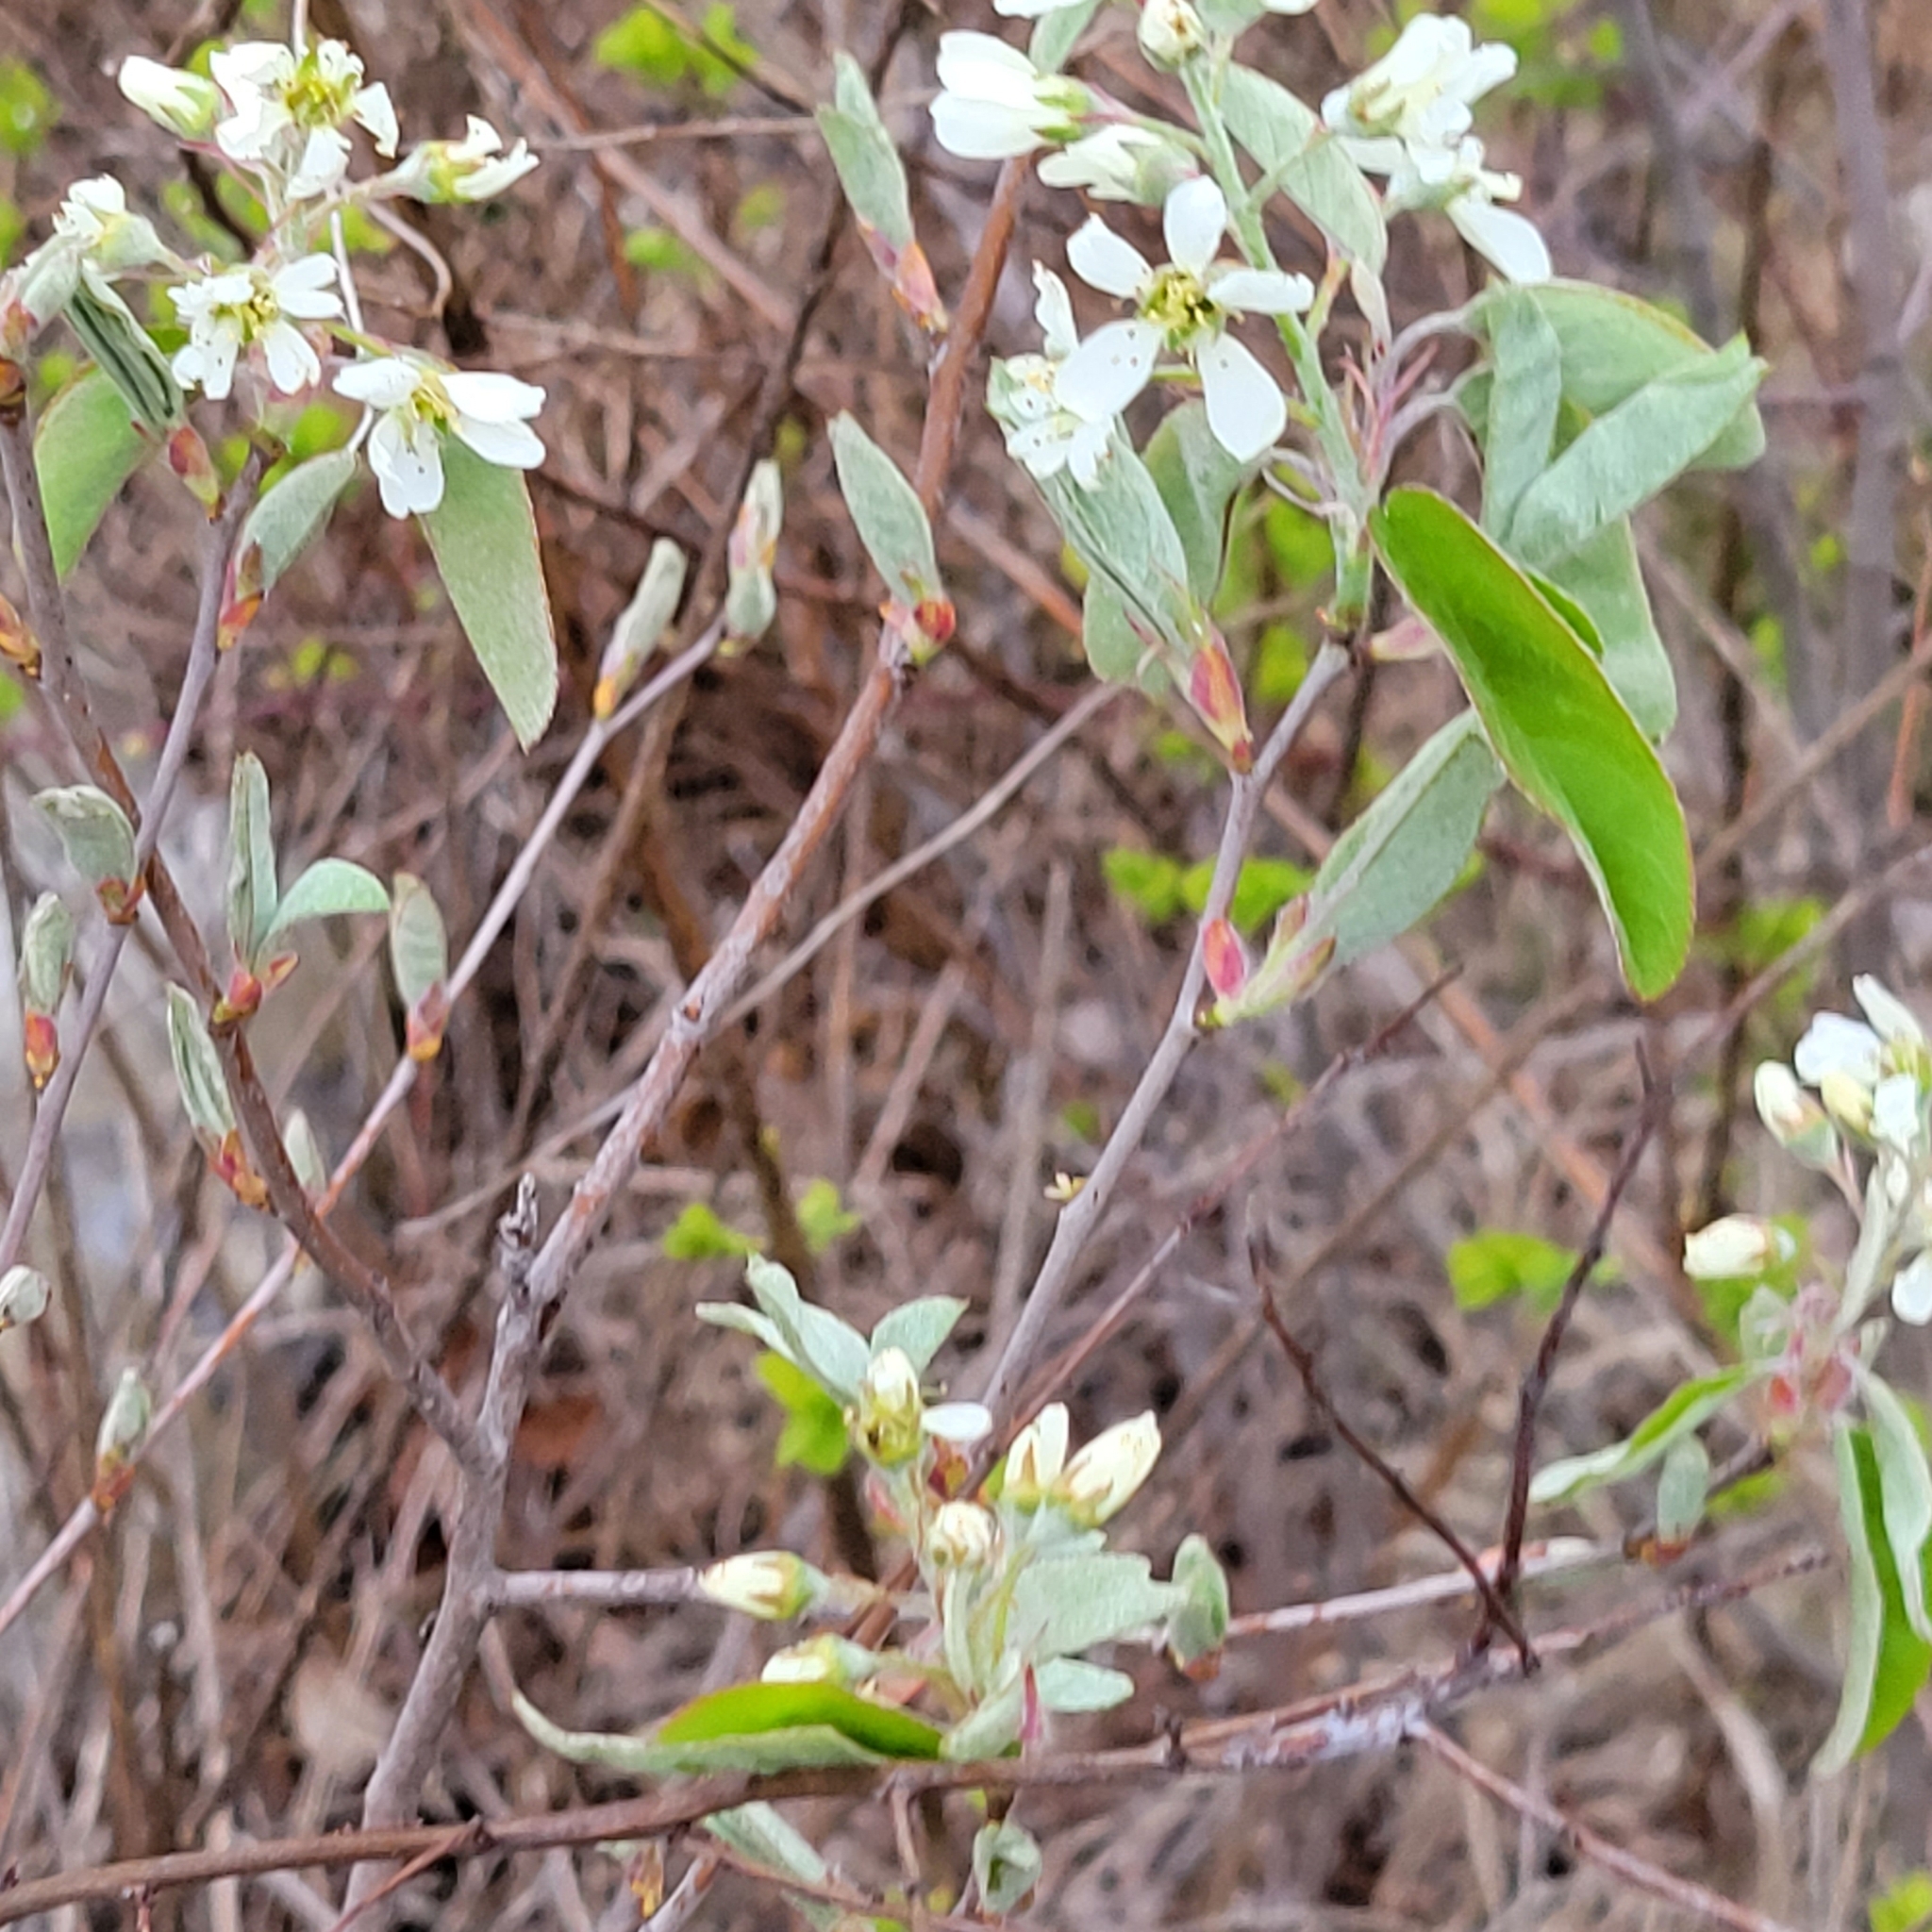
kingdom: Plantae
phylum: Tracheophyta
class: Magnoliopsida
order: Rosales
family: Rosaceae
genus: Amelanchier
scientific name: Amelanchier arborea
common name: Downy serviceberry
